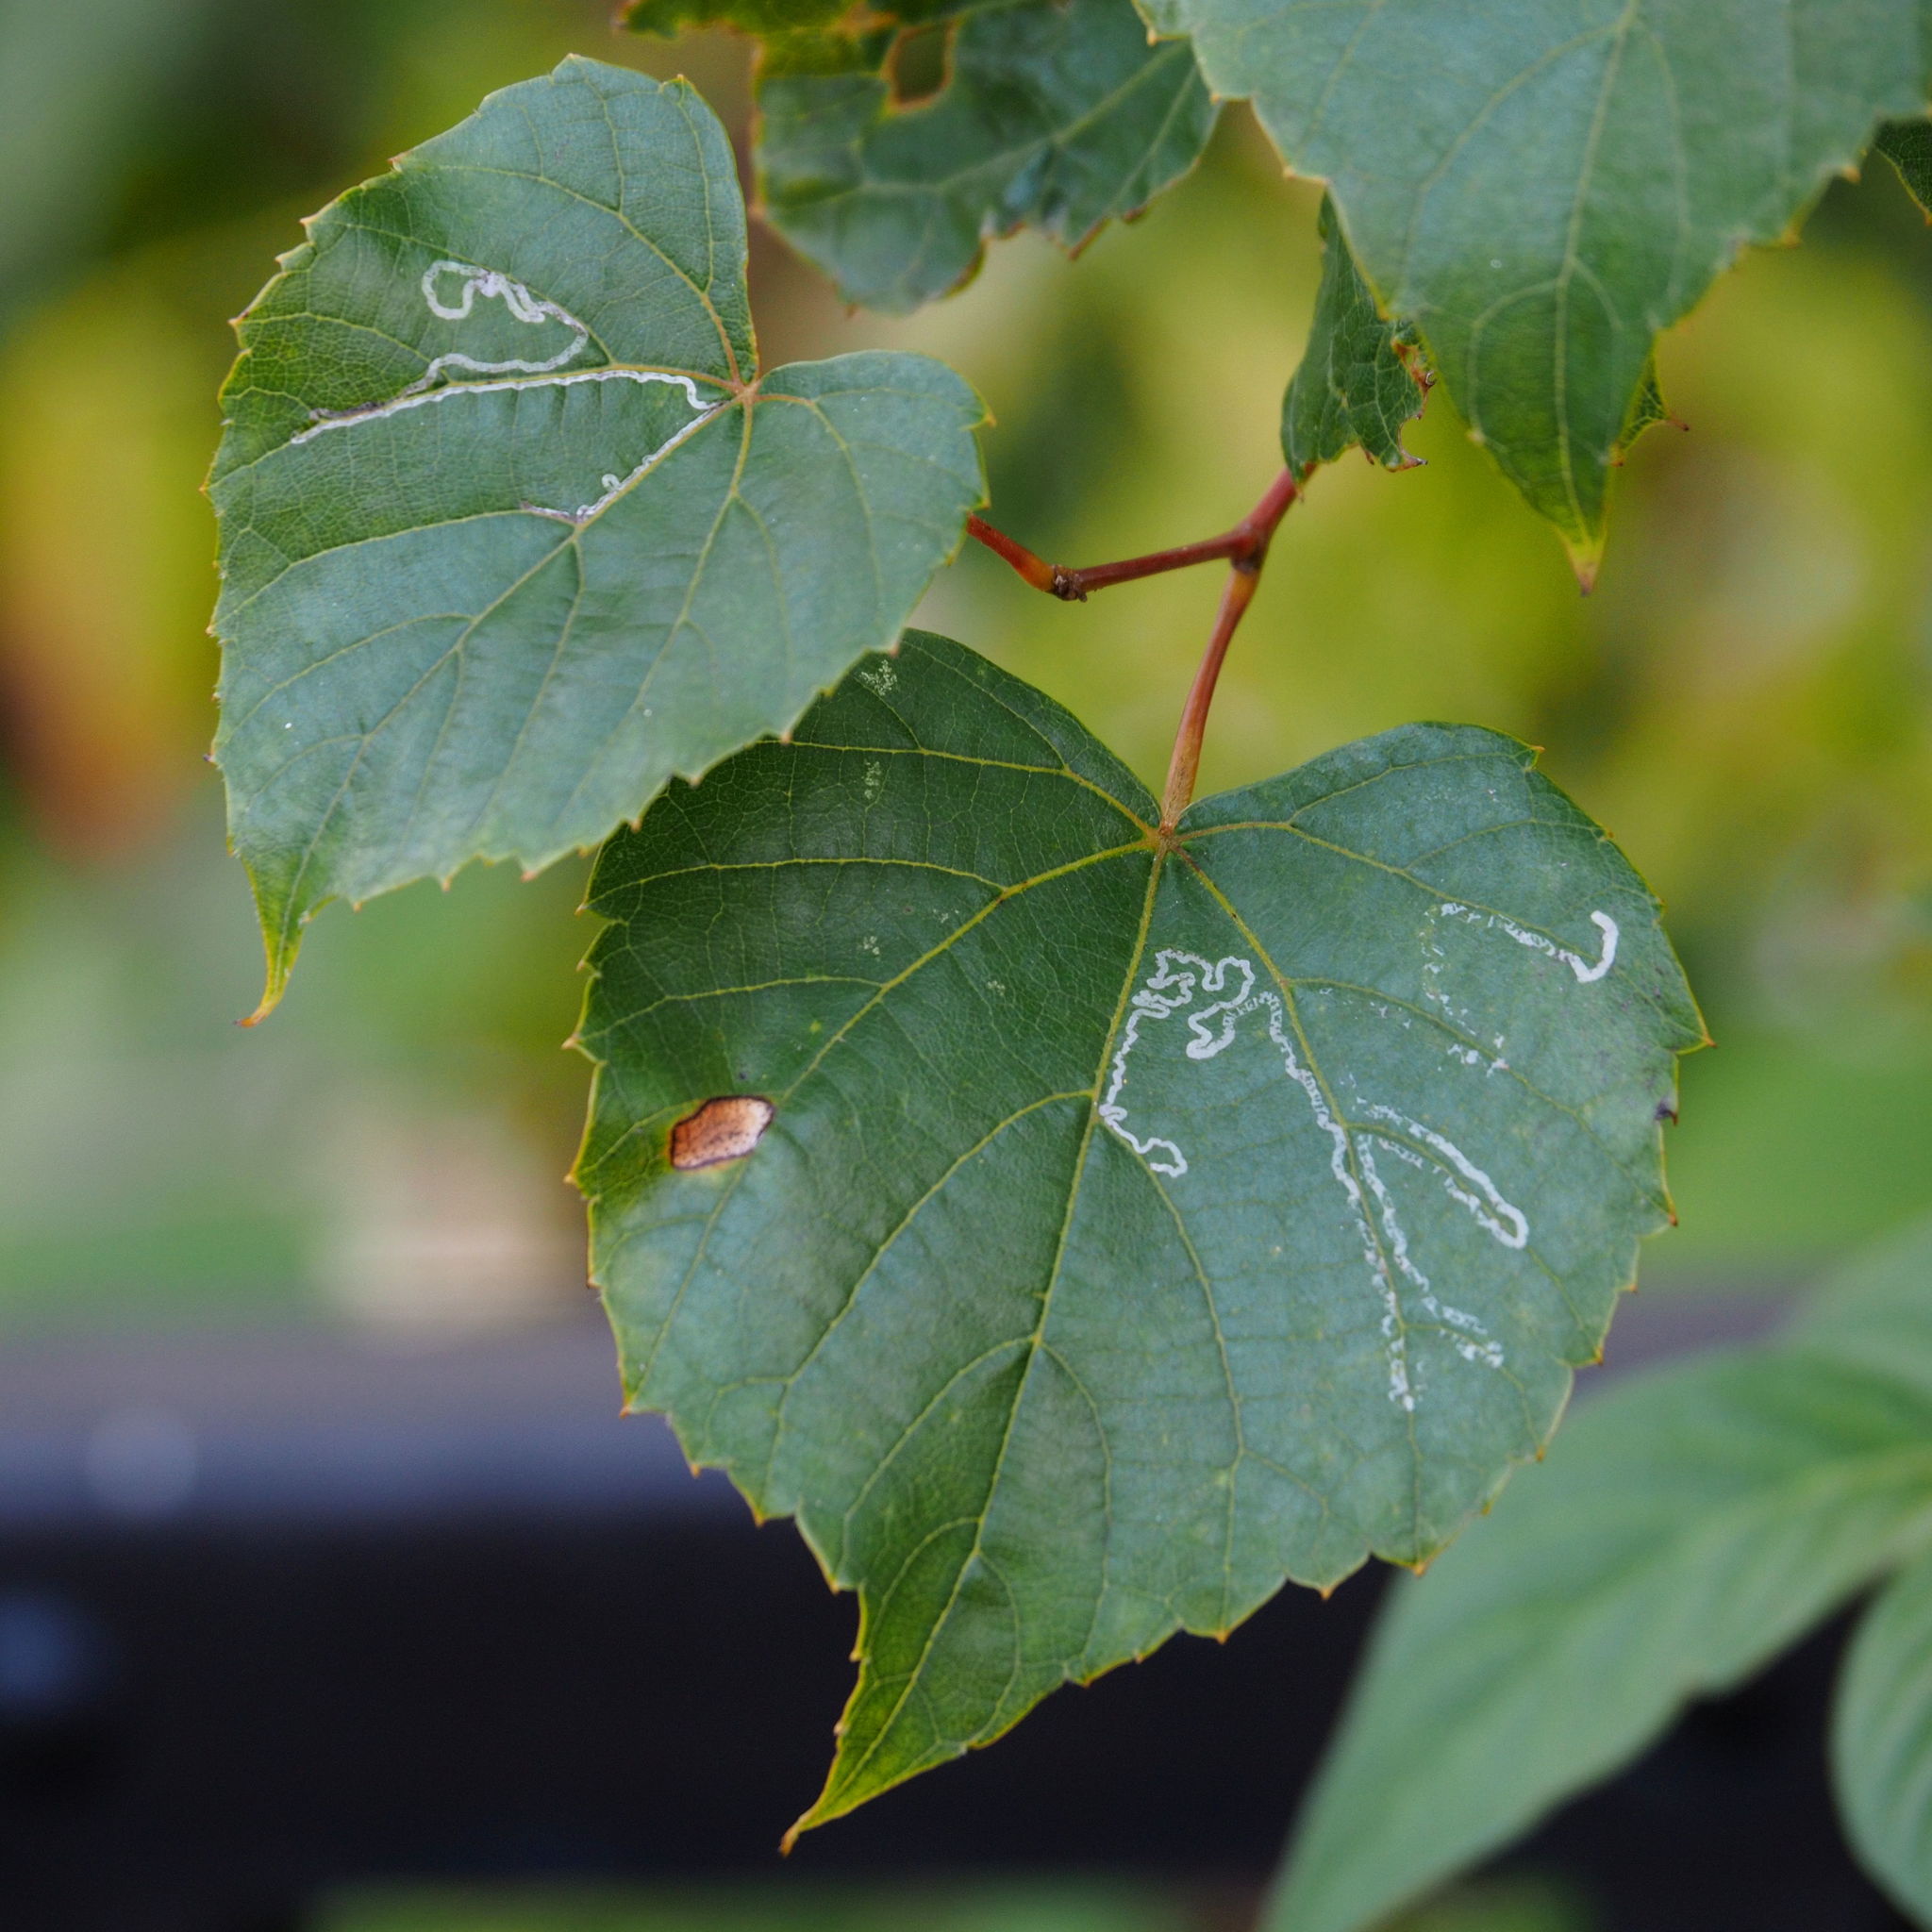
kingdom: Animalia
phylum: Arthropoda
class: Insecta
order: Lepidoptera
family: Gracillariidae
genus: Phyllocnistis
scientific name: Phyllocnistis vitegenella
